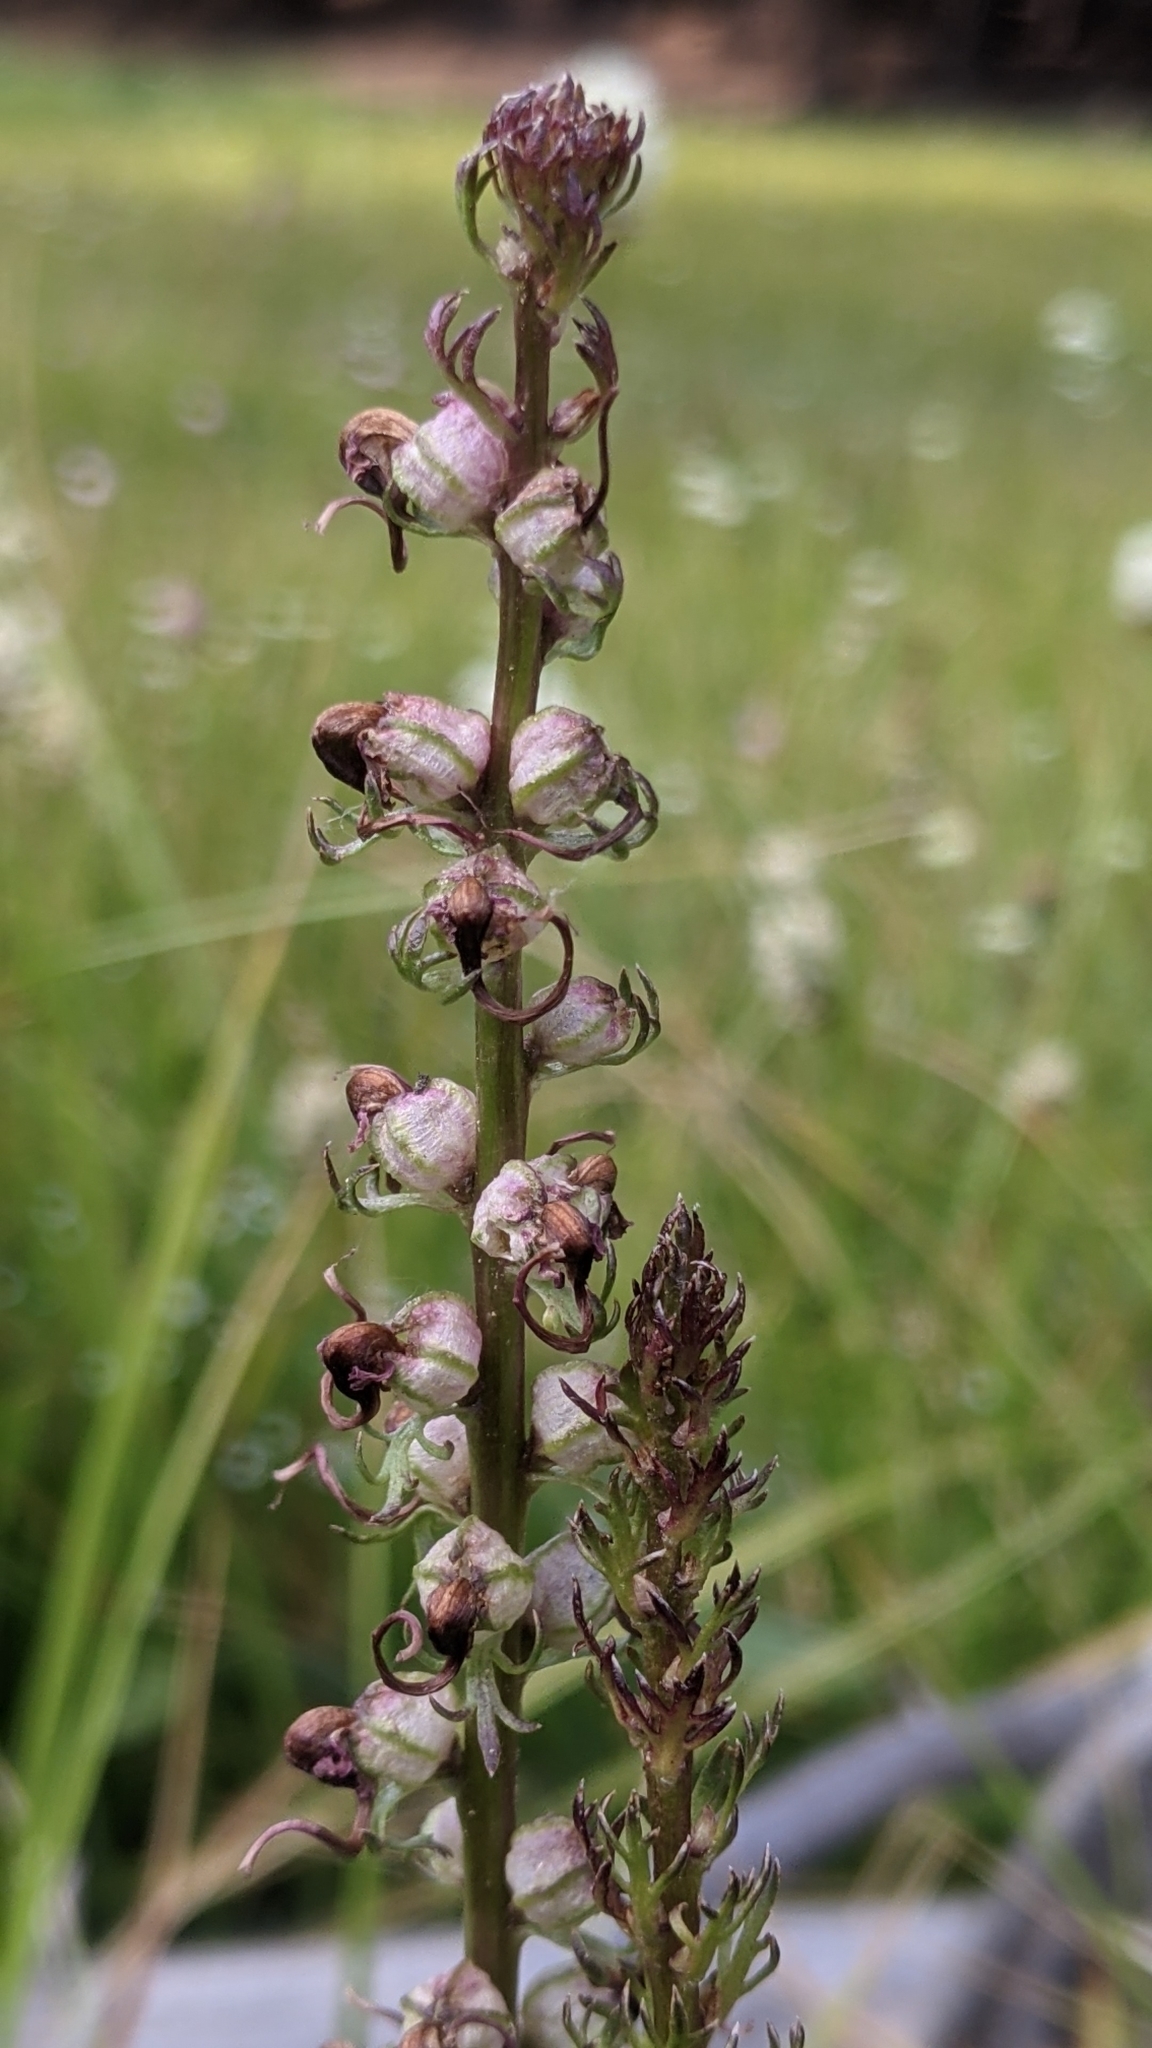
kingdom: Plantae
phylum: Tracheophyta
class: Magnoliopsida
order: Lamiales
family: Orobanchaceae
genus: Pedicularis
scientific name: Pedicularis groenlandica
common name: Elephant's-head
